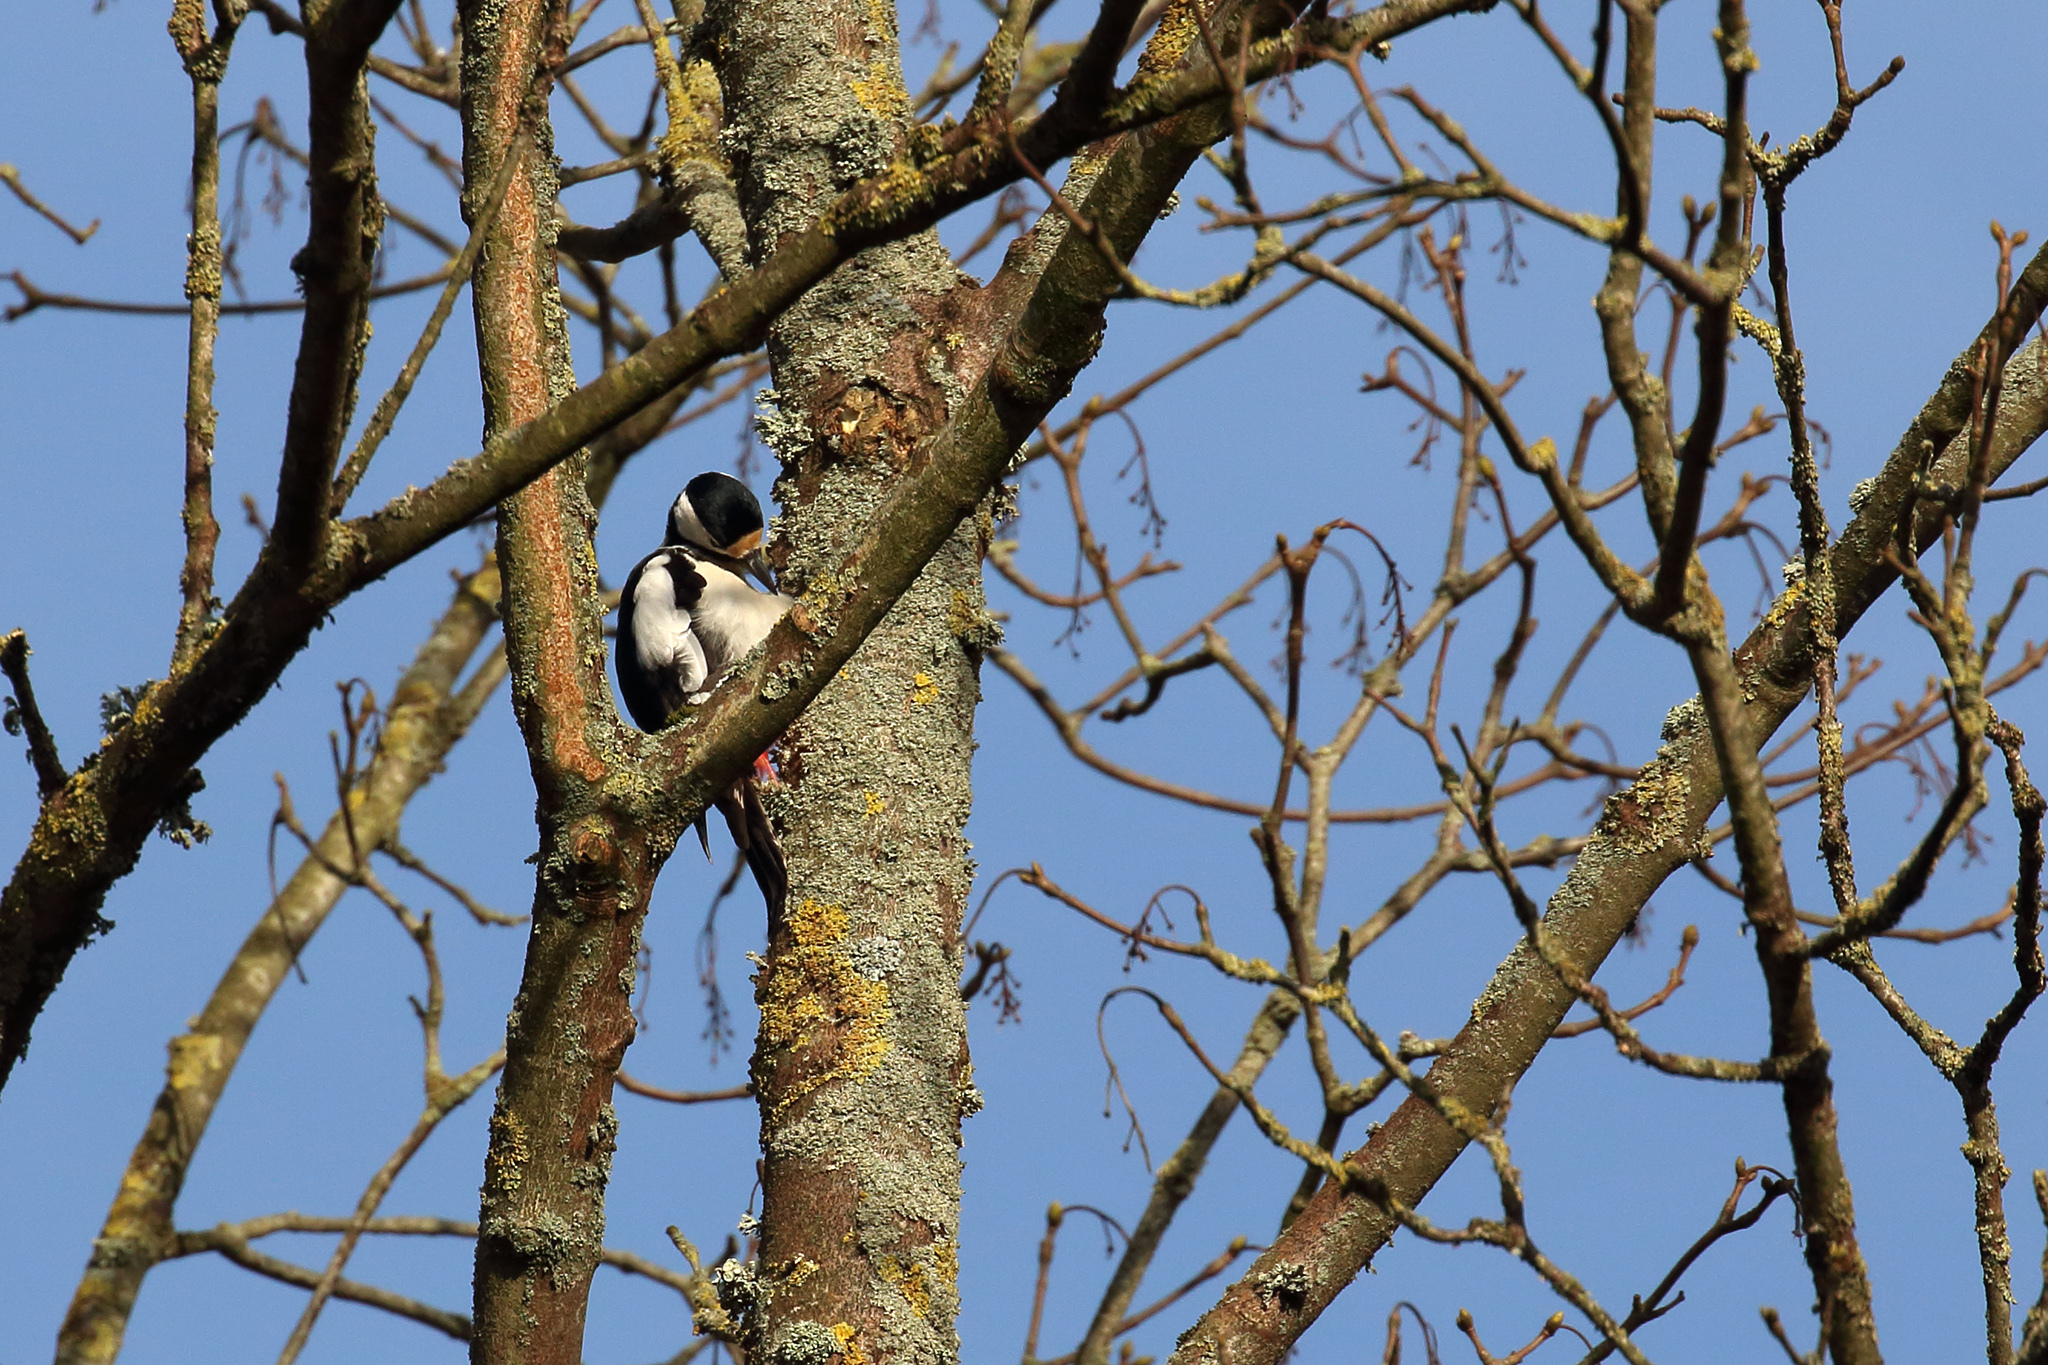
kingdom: Animalia
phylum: Chordata
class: Aves
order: Piciformes
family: Picidae
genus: Dendrocopos
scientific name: Dendrocopos major
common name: Great spotted woodpecker
